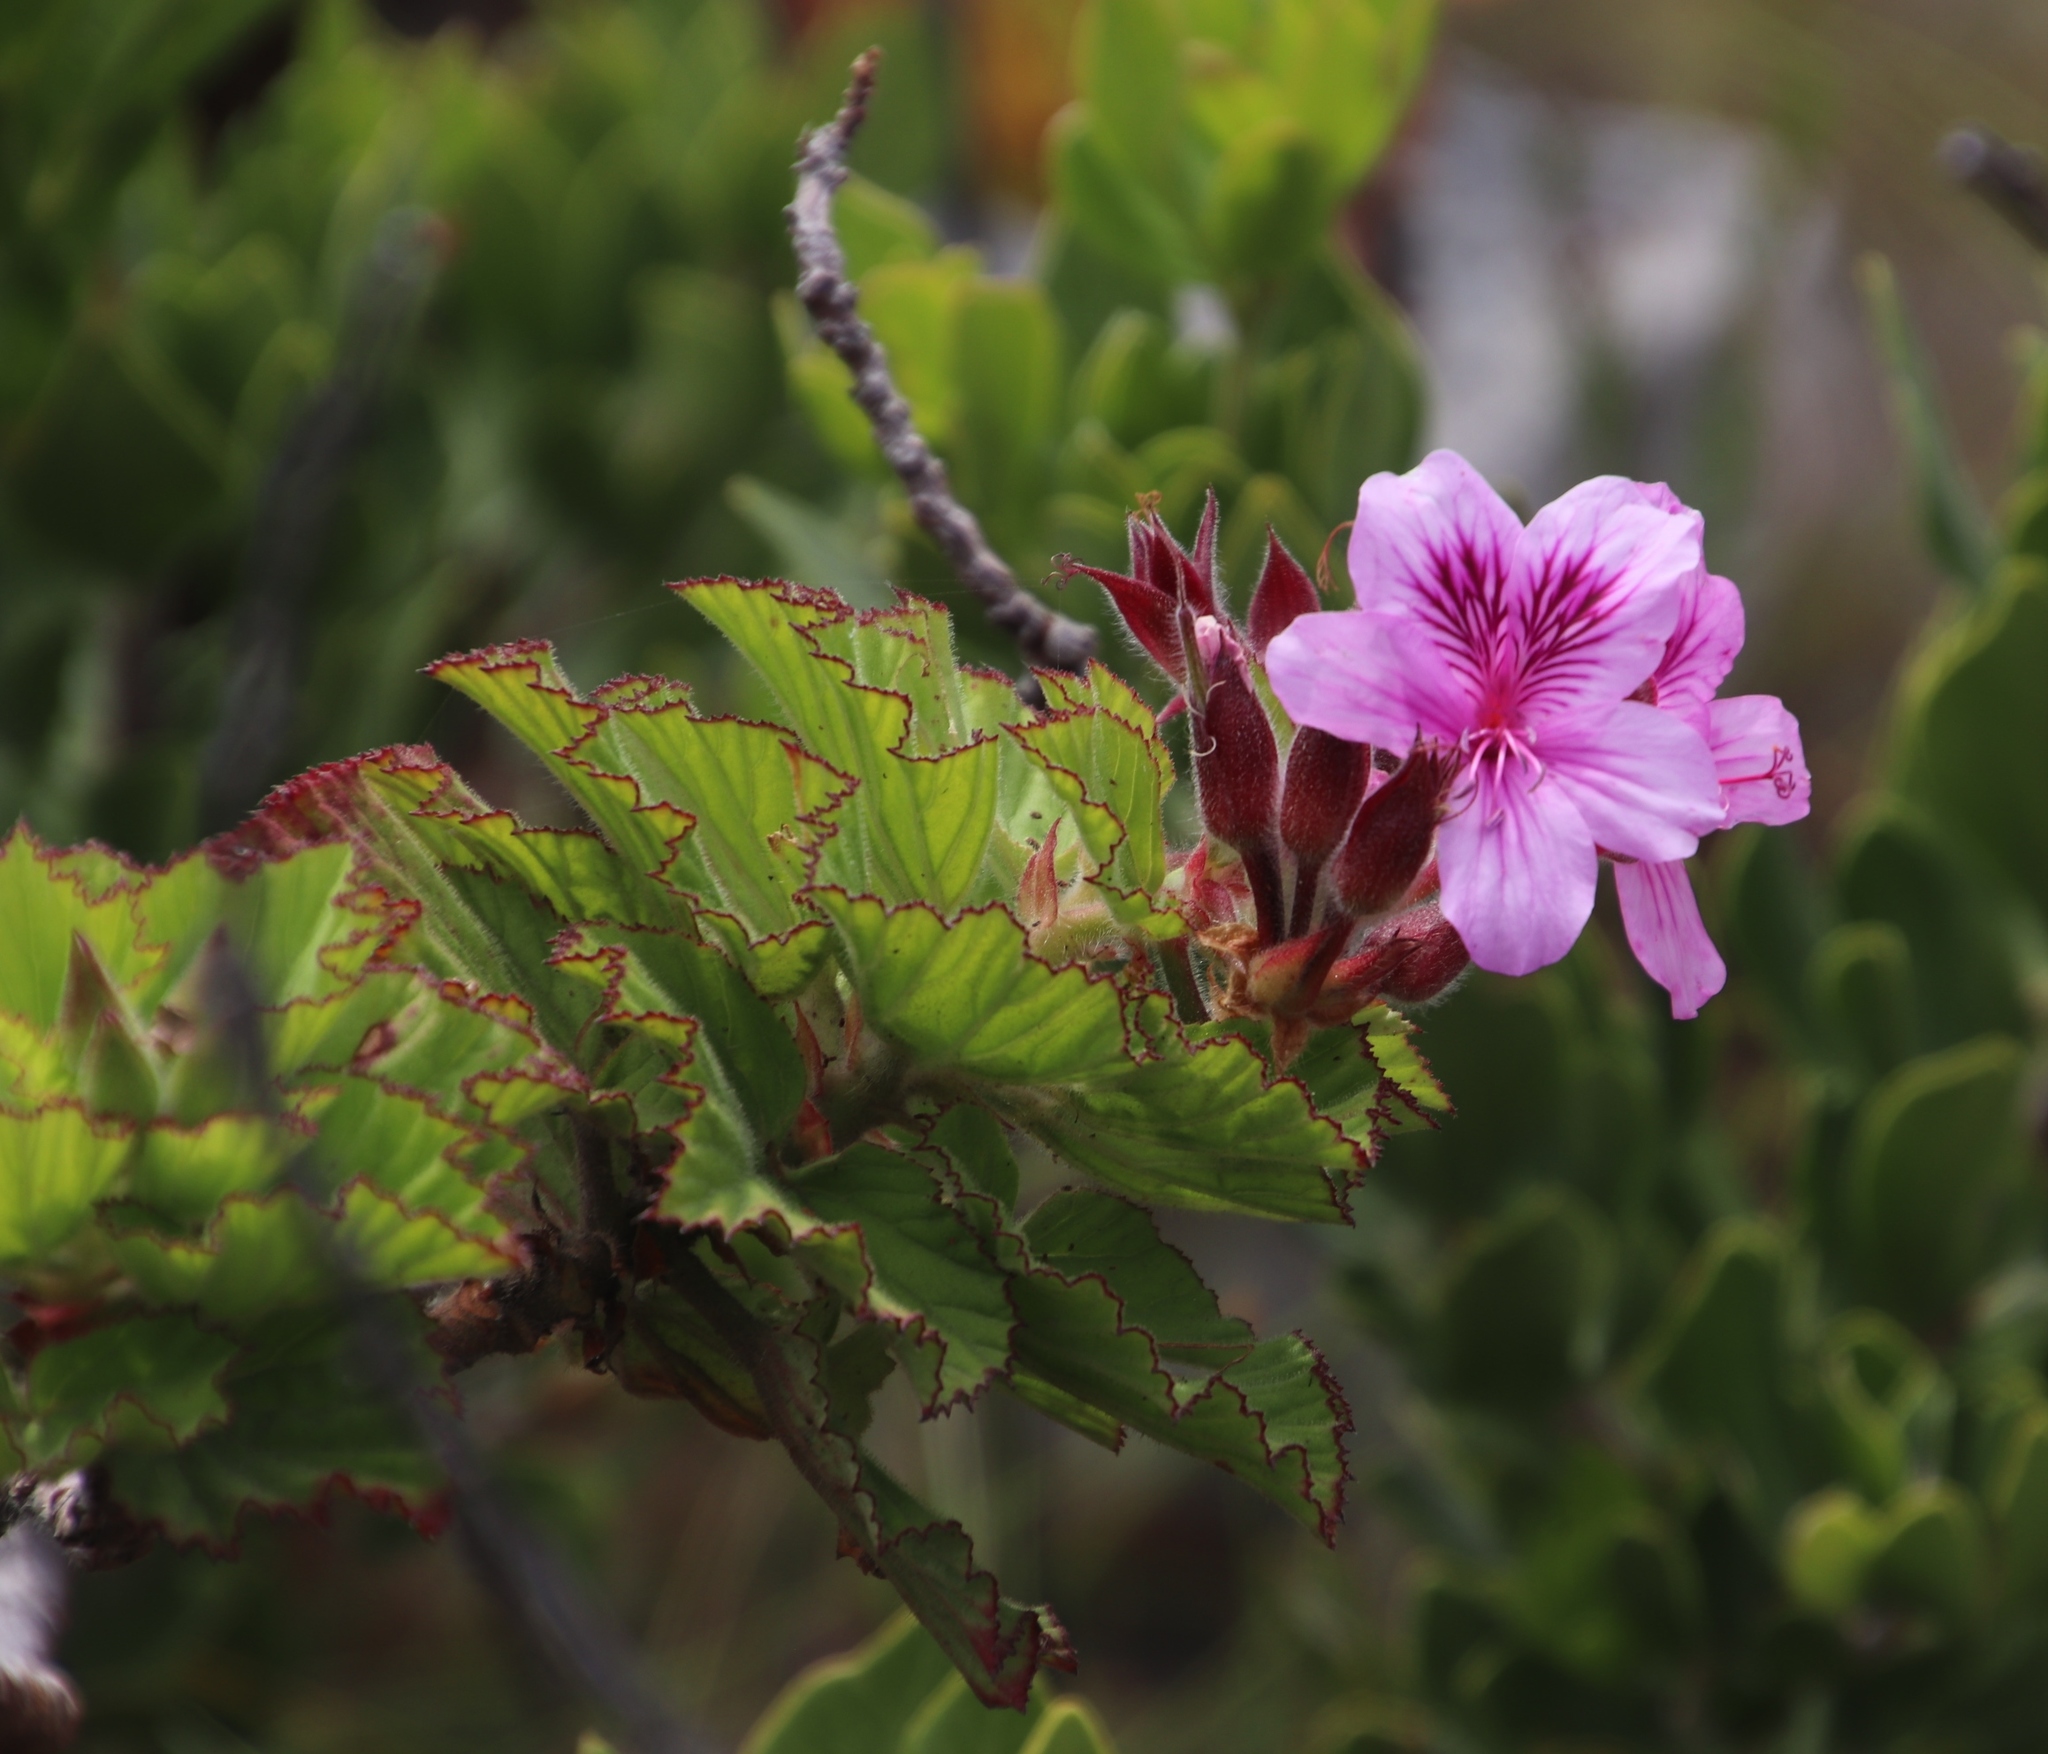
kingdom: Plantae
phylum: Tracheophyta
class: Magnoliopsida
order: Geraniales
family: Geraniaceae
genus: Pelargonium
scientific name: Pelargonium cucullatum
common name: Tree pelargonium
